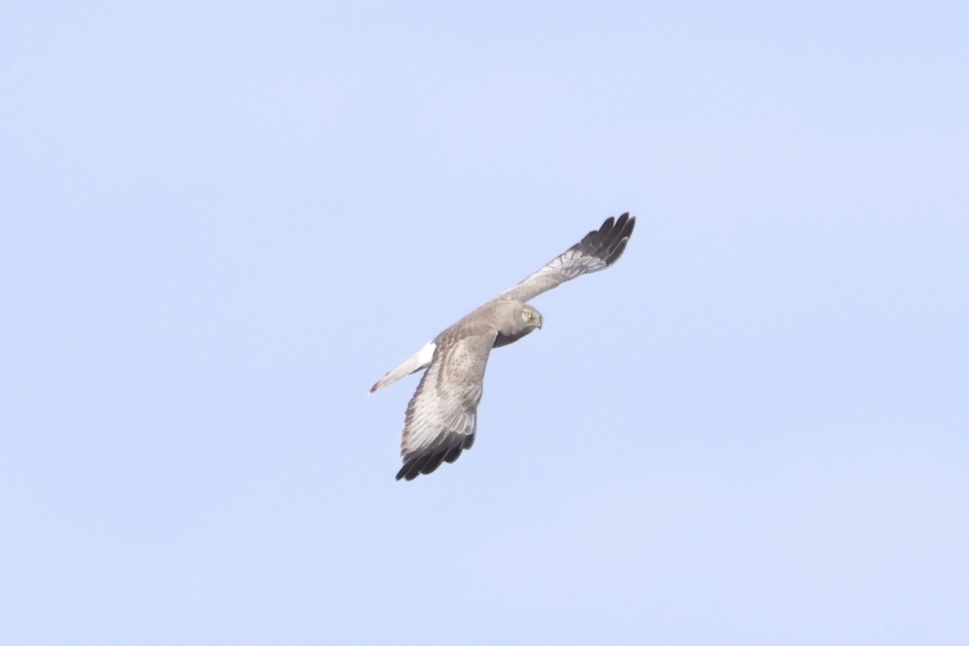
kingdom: Animalia
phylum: Chordata
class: Aves
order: Accipitriformes
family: Accipitridae
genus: Circus
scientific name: Circus cyaneus
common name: Hen harrier
